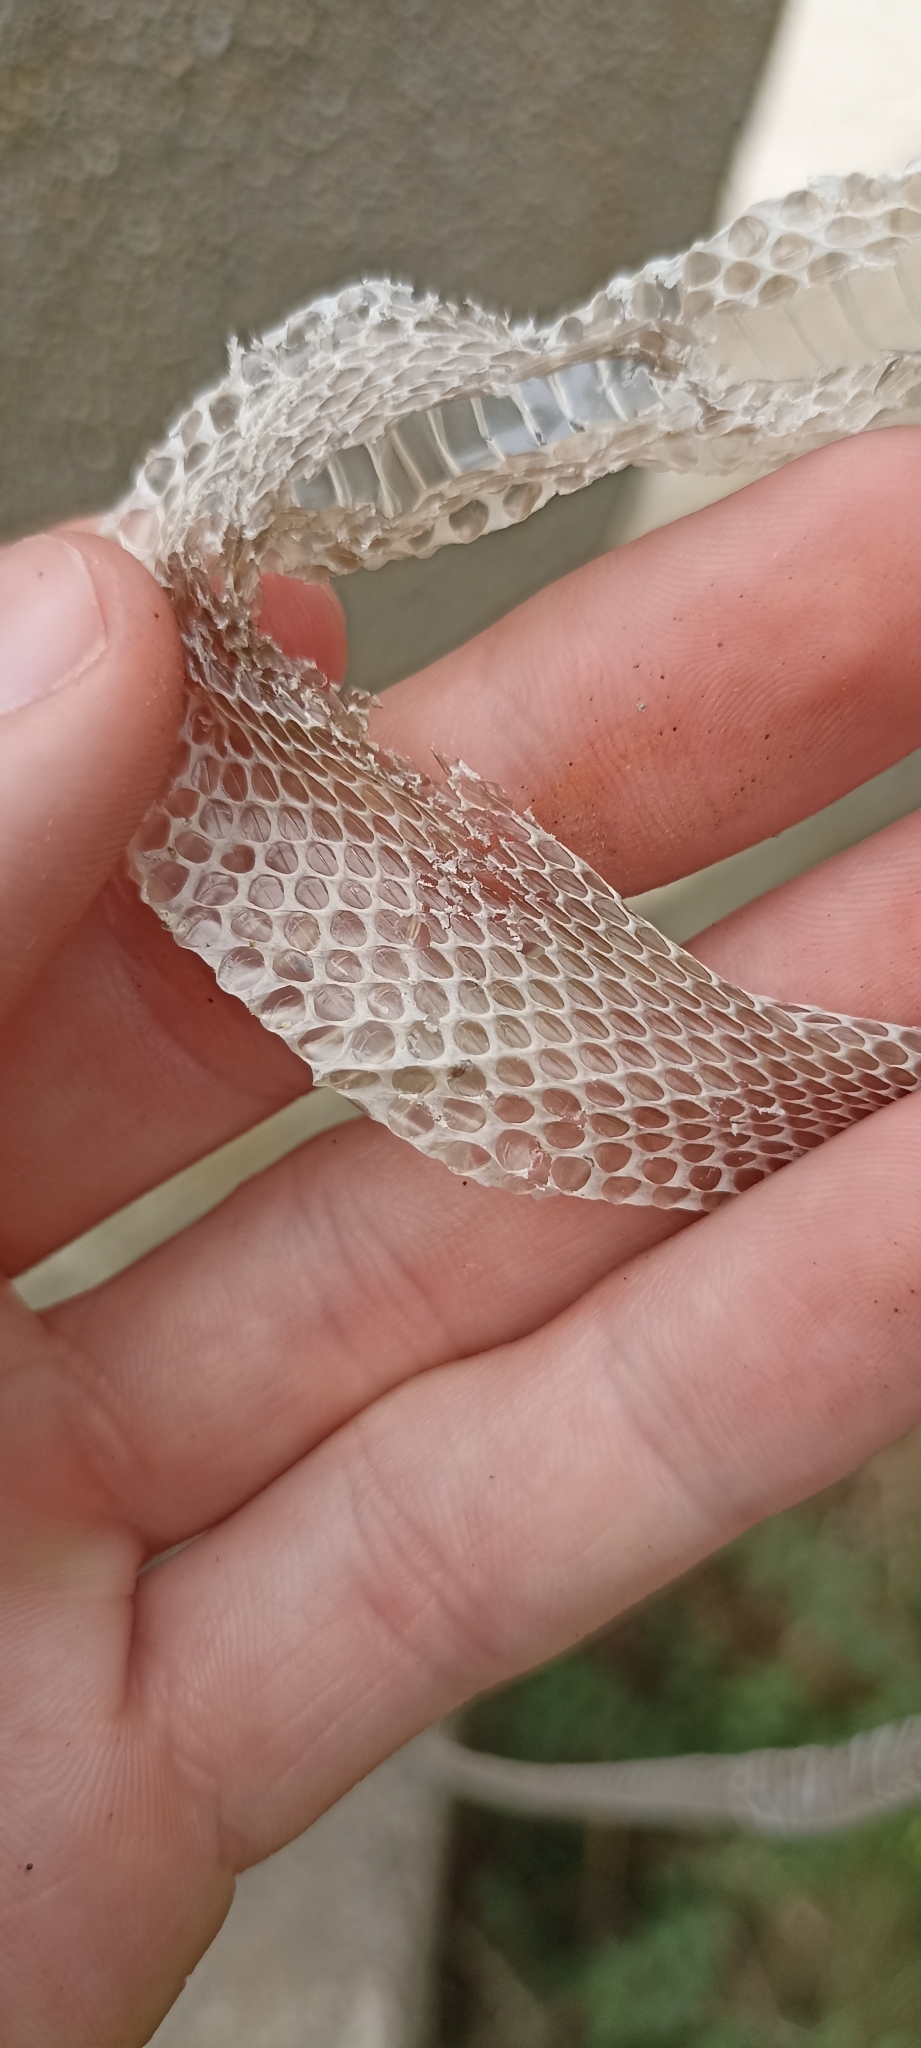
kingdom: Animalia
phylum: Chordata
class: Squamata
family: Colubridae
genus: Natrix
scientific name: Natrix maura
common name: Viperine water snake
